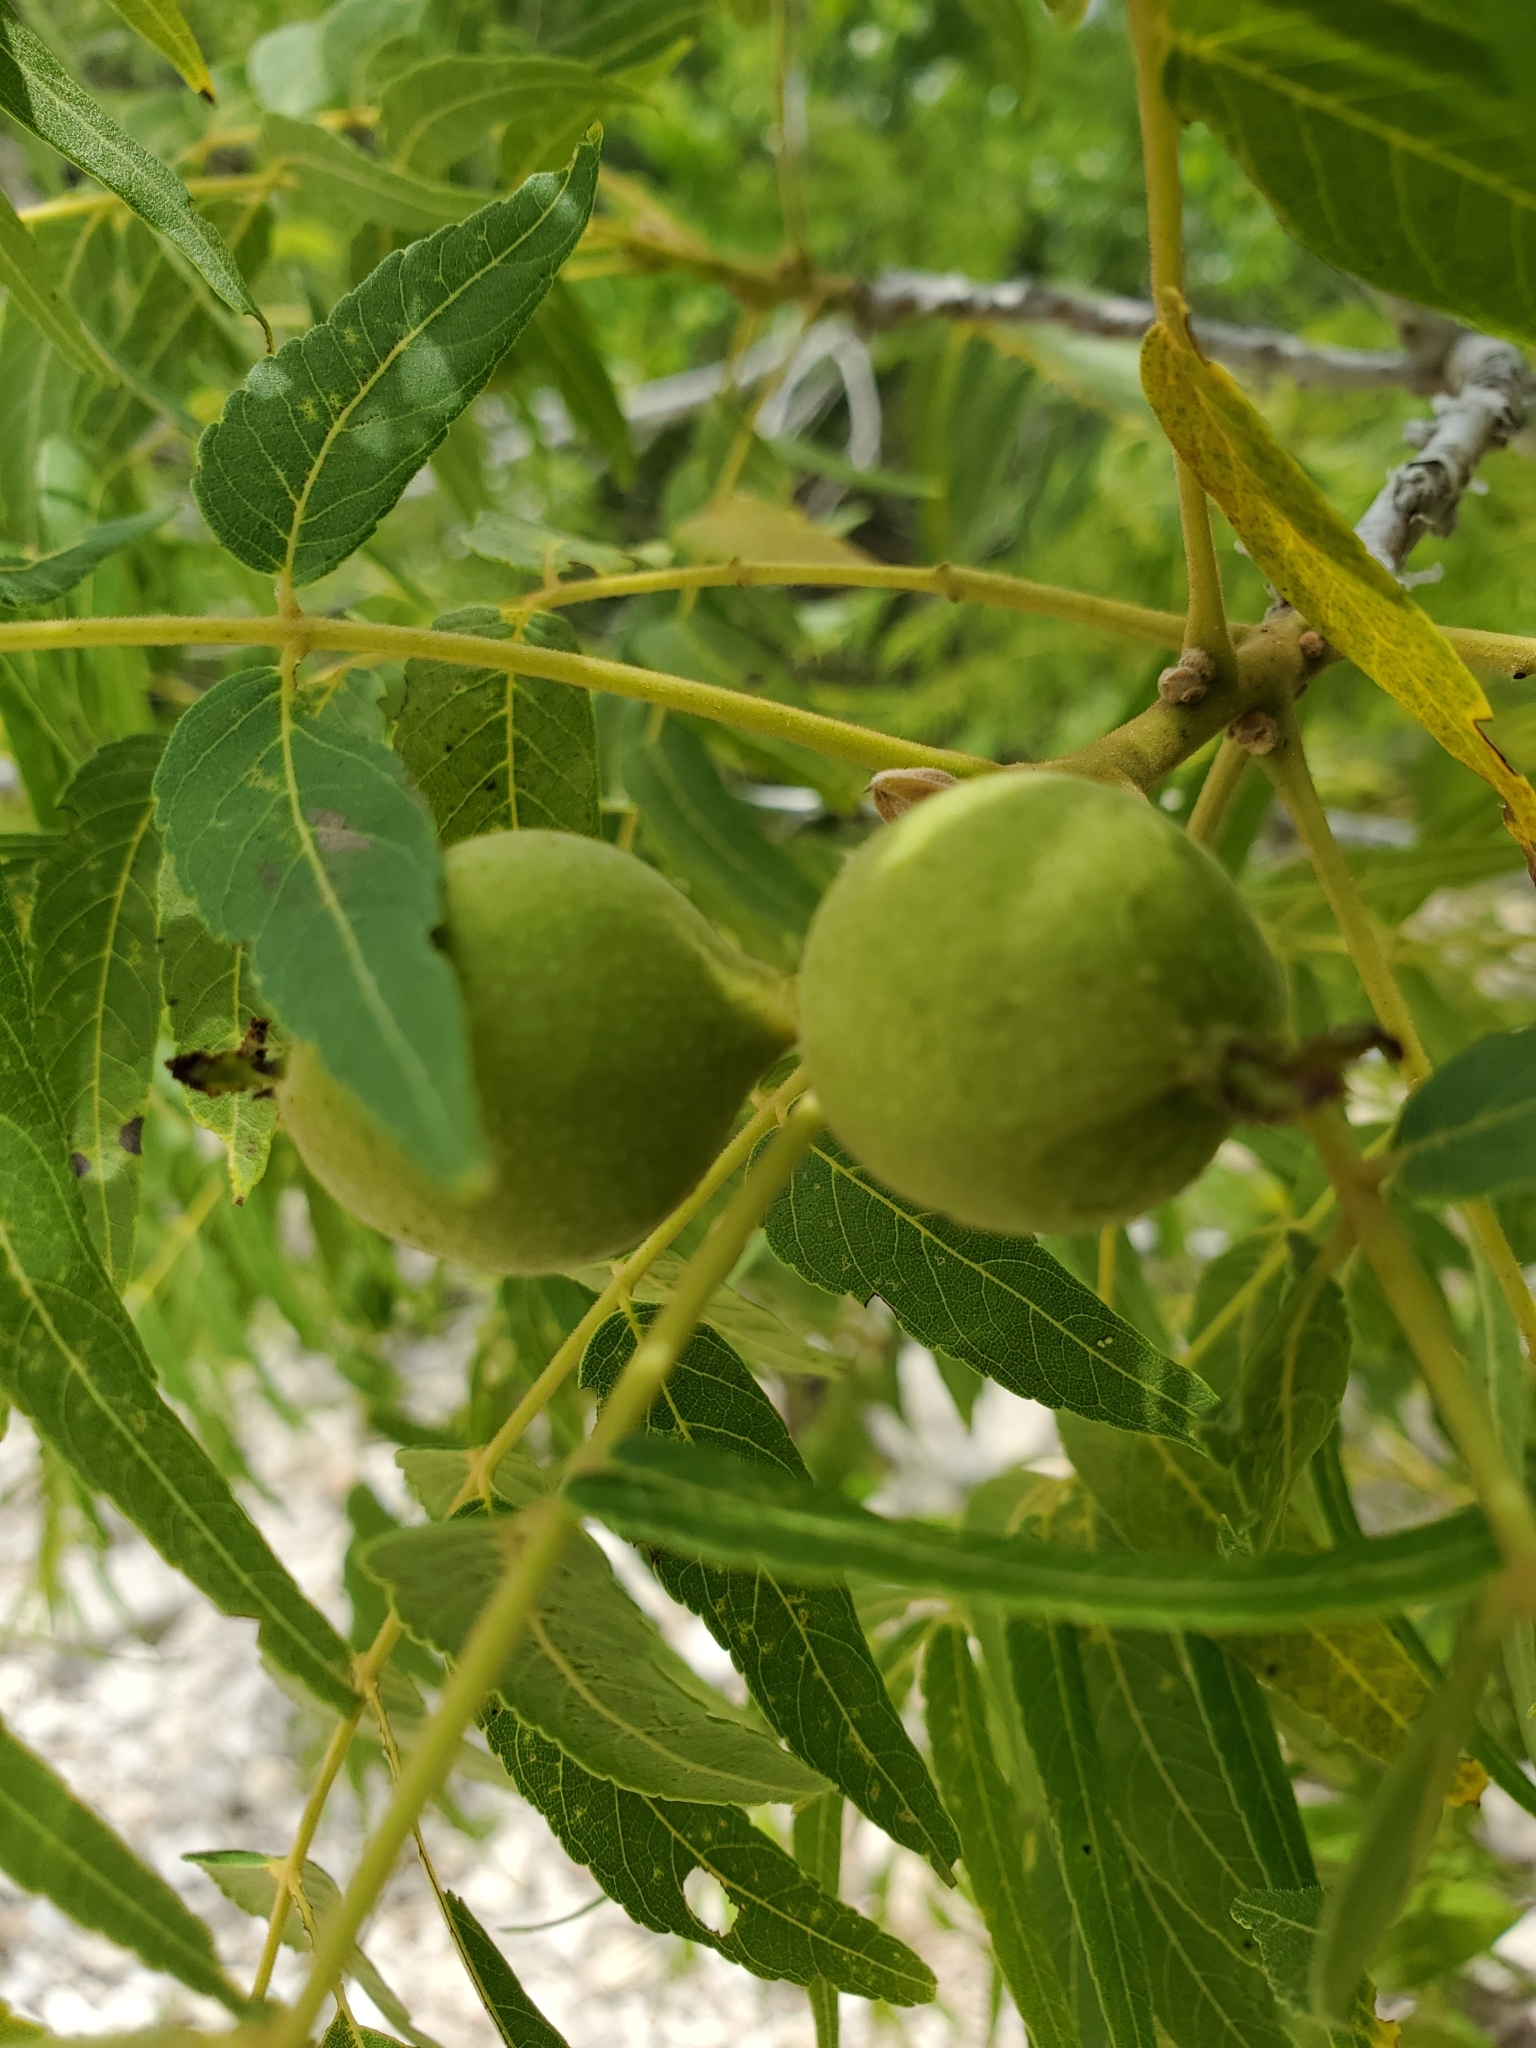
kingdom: Plantae
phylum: Tracheophyta
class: Magnoliopsida
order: Fagales
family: Juglandaceae
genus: Juglans
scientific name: Juglans microcarpa
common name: Texas walnut
